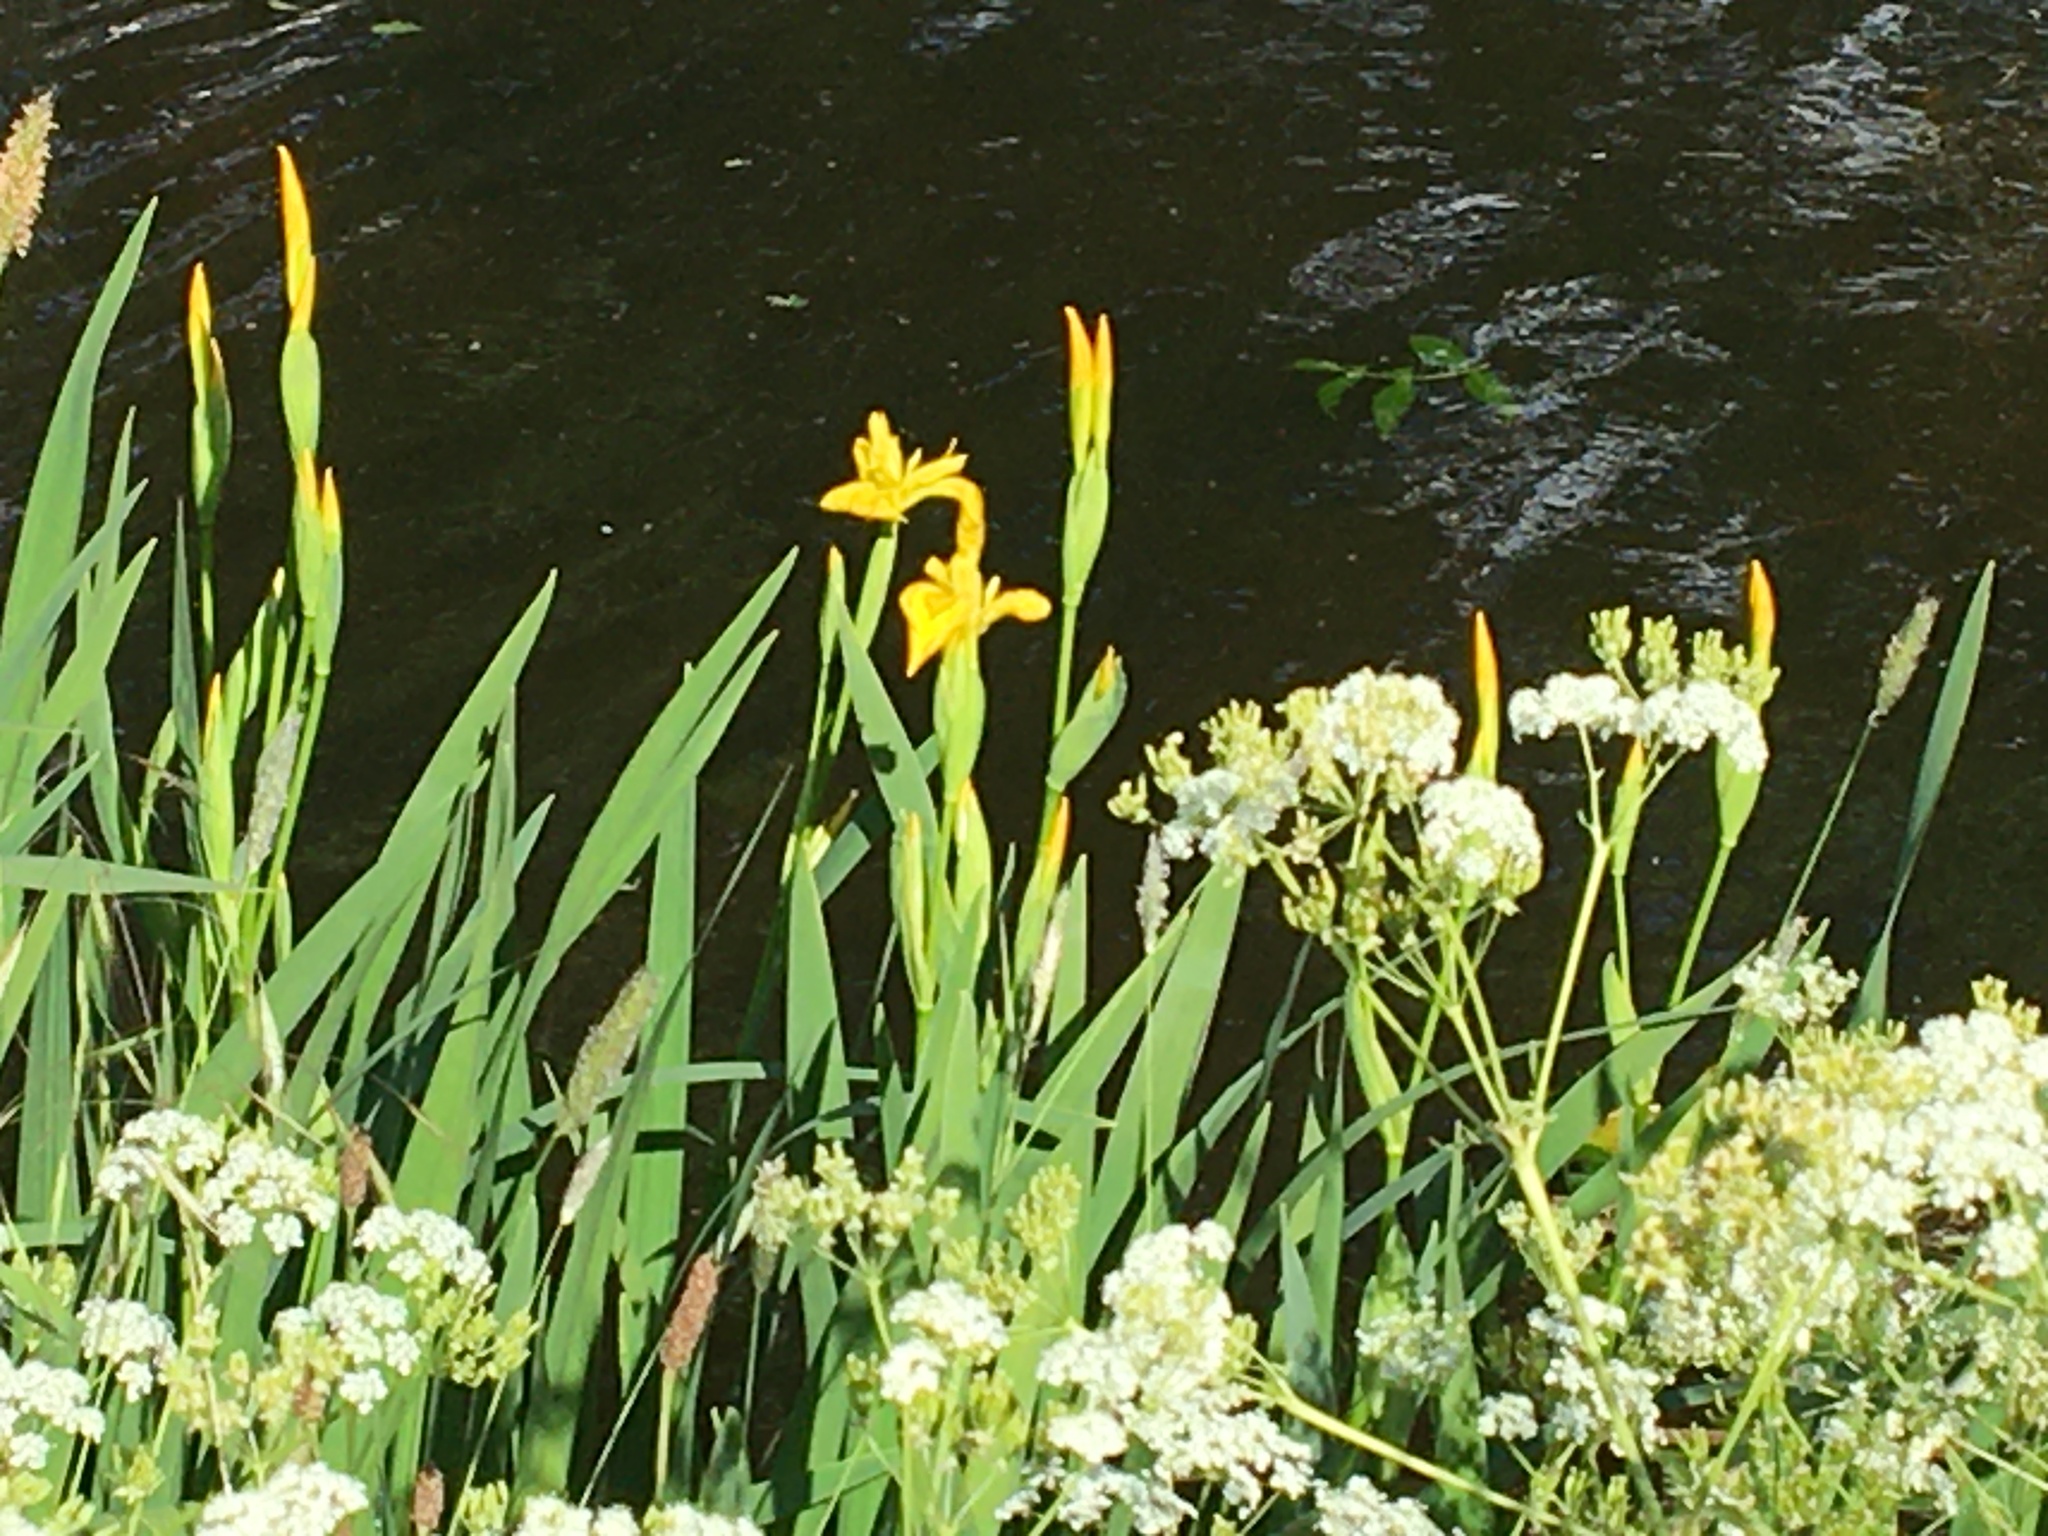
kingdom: Plantae
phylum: Tracheophyta
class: Liliopsida
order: Asparagales
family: Iridaceae
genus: Iris
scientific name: Iris pseudacorus
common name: Yellow flag
